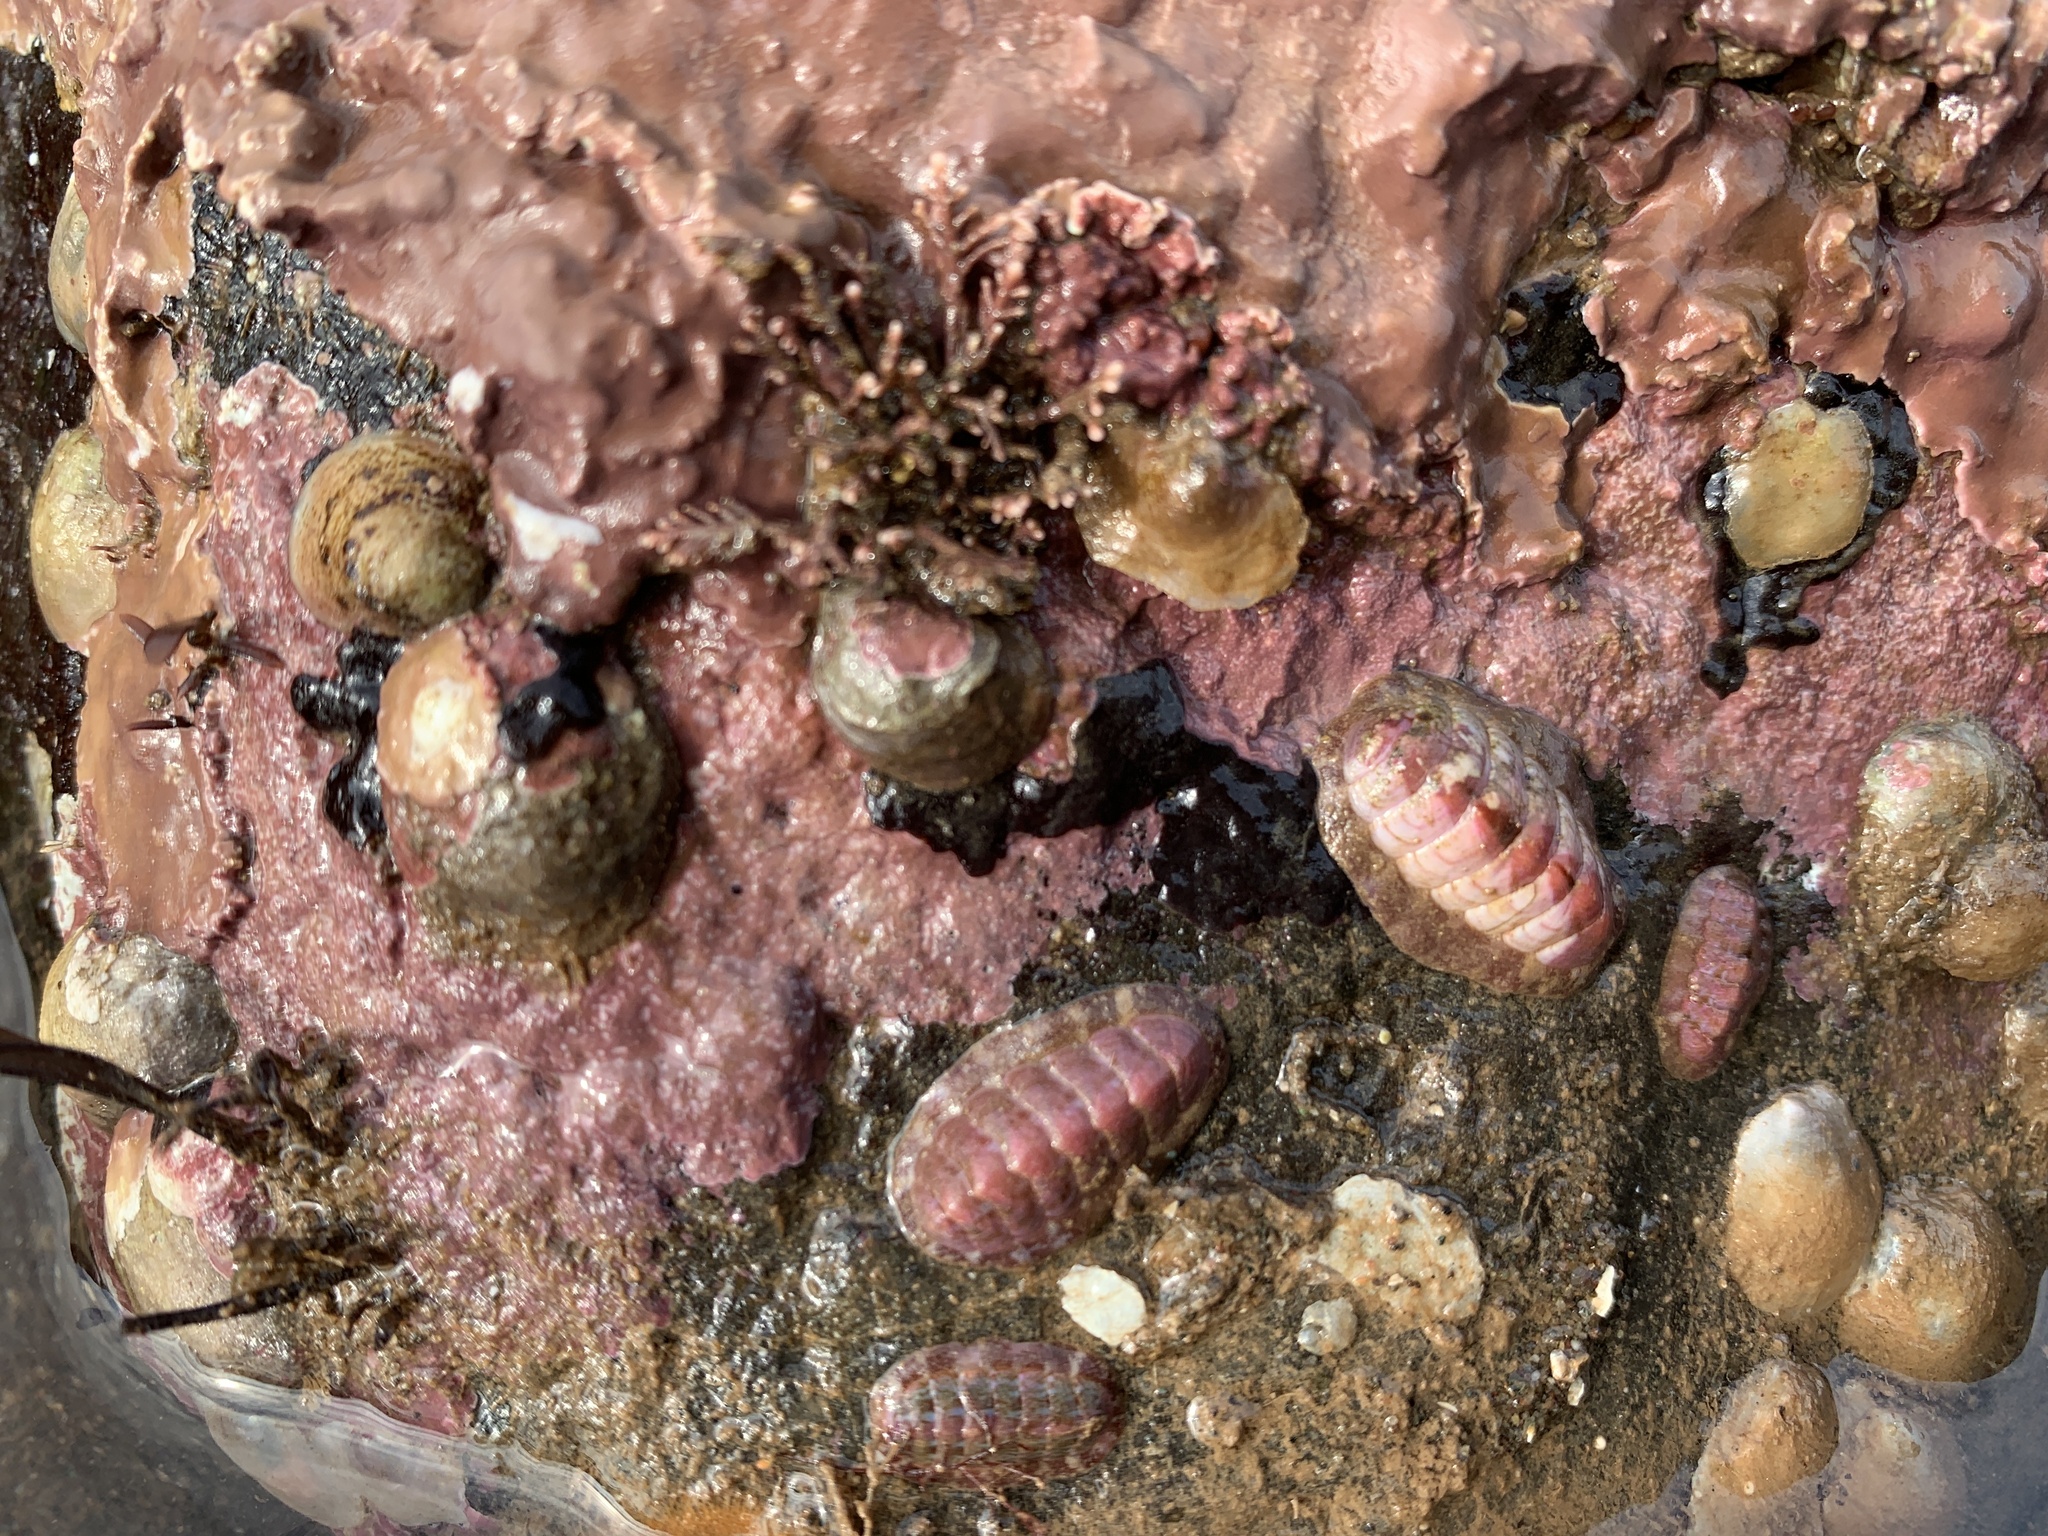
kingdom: Animalia
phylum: Mollusca
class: Polyplacophora
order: Chitonida
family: Tonicellidae
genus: Boreochiton
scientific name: Boreochiton ruber
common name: Northern red chiton
